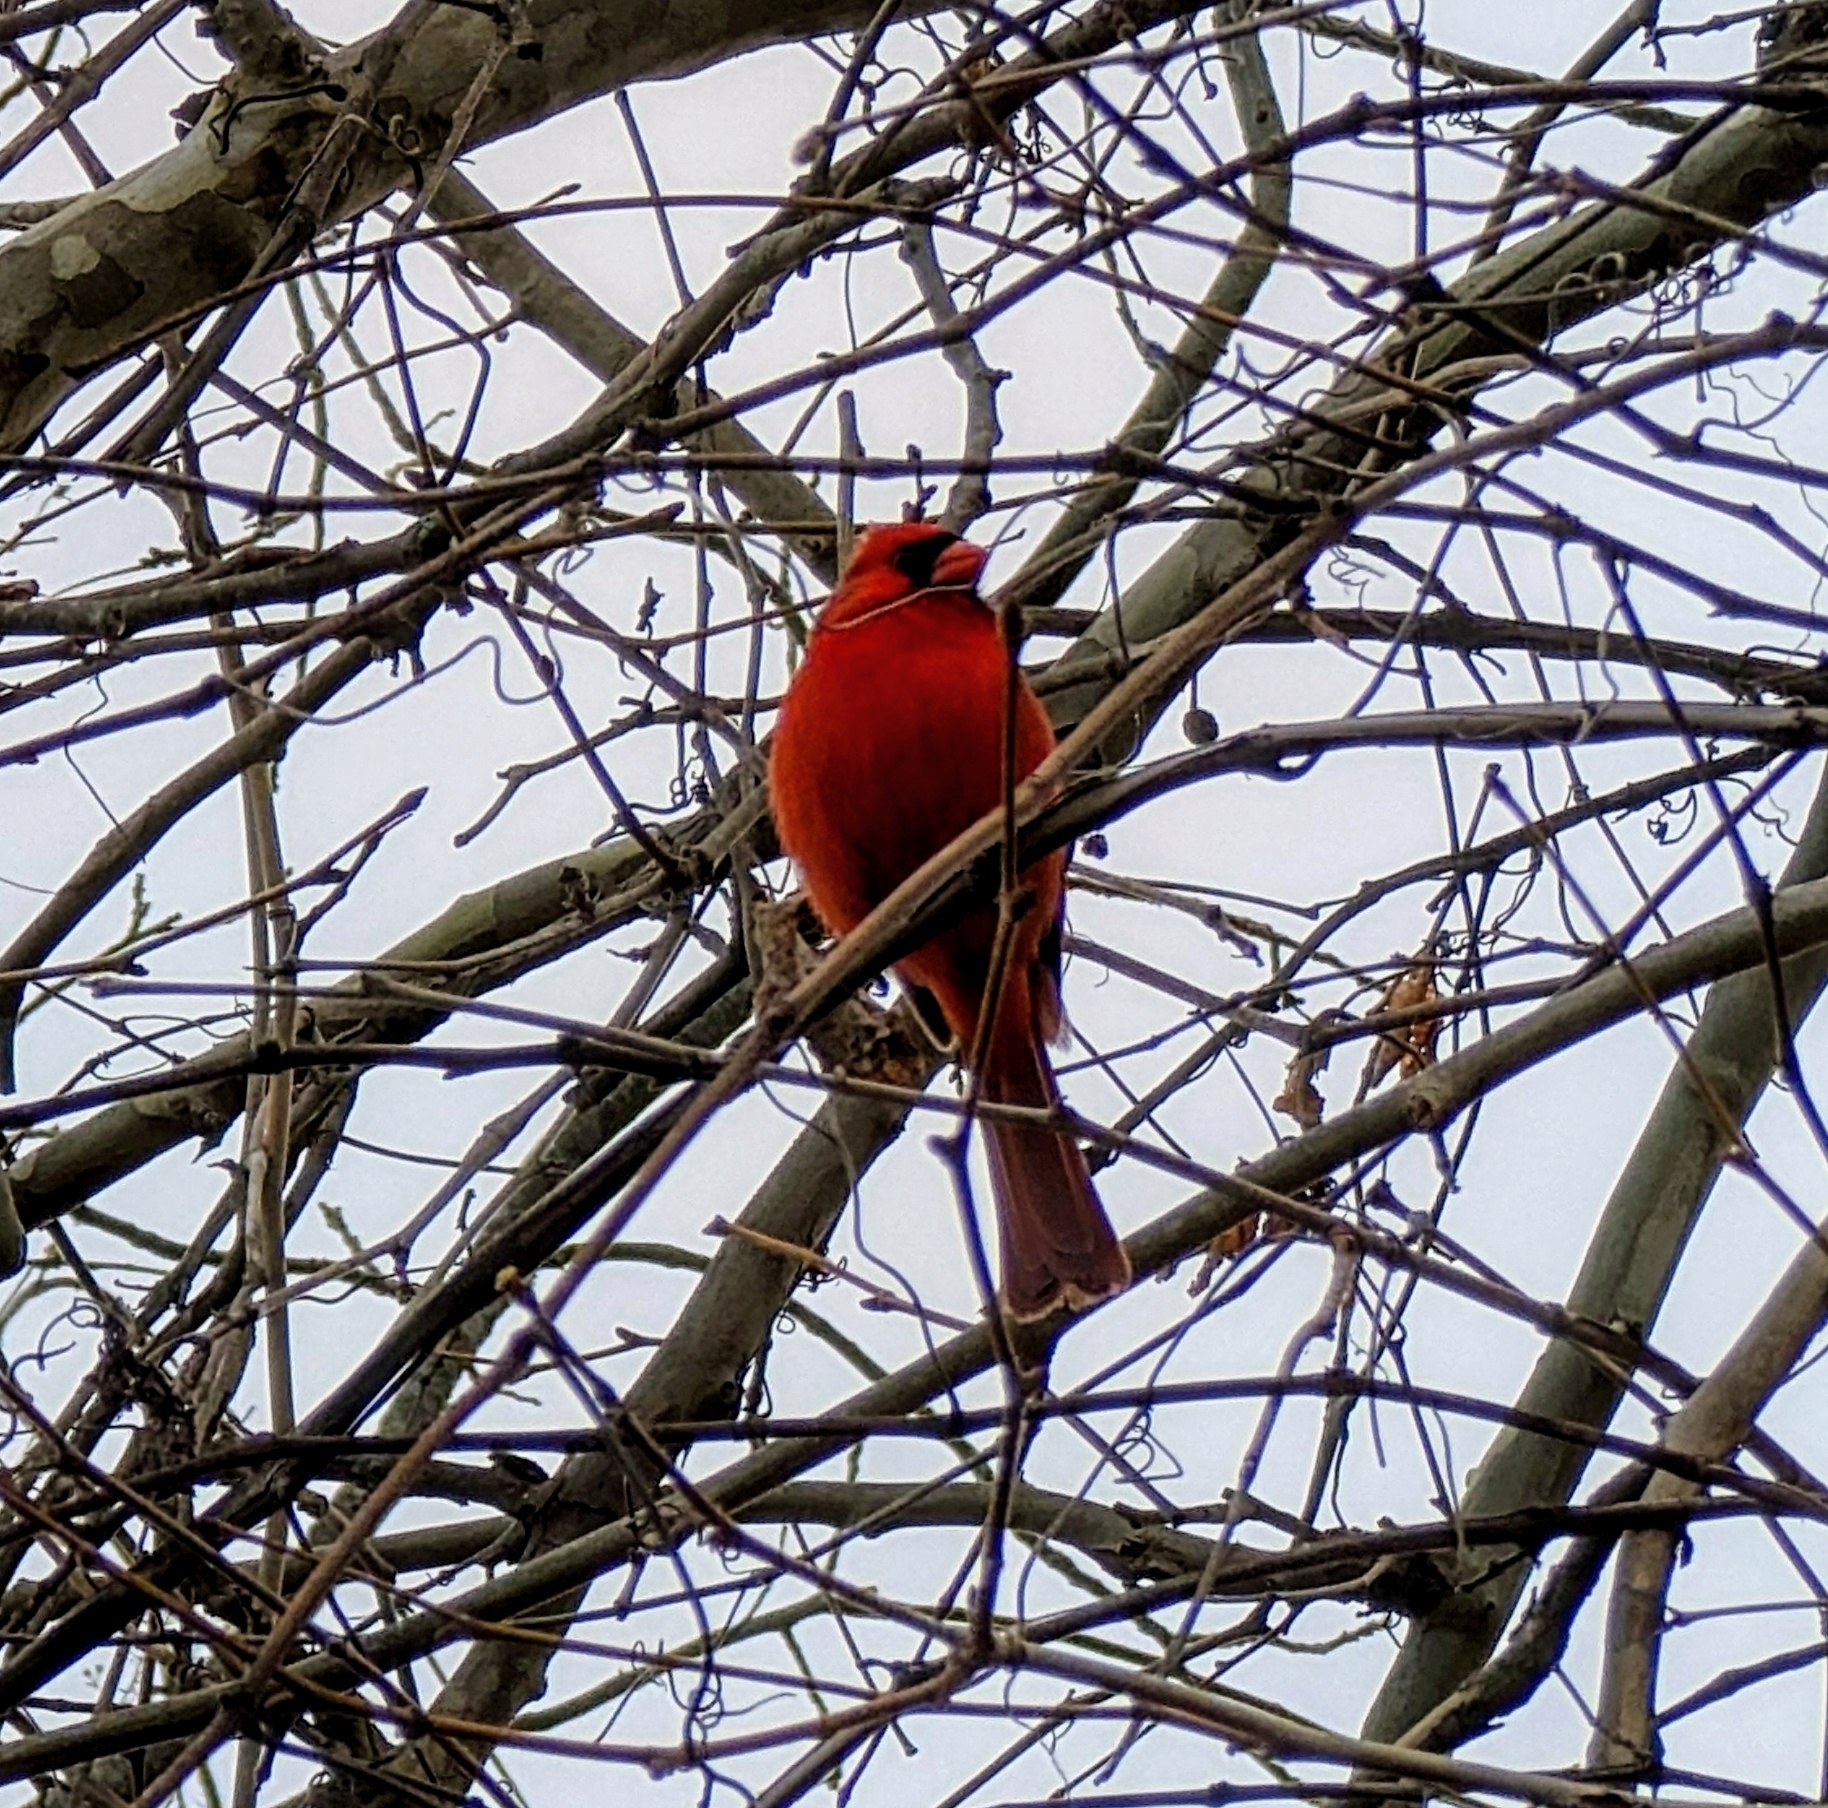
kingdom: Animalia
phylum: Chordata
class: Aves
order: Passeriformes
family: Cardinalidae
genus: Cardinalis
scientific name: Cardinalis cardinalis
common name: Northern cardinal
